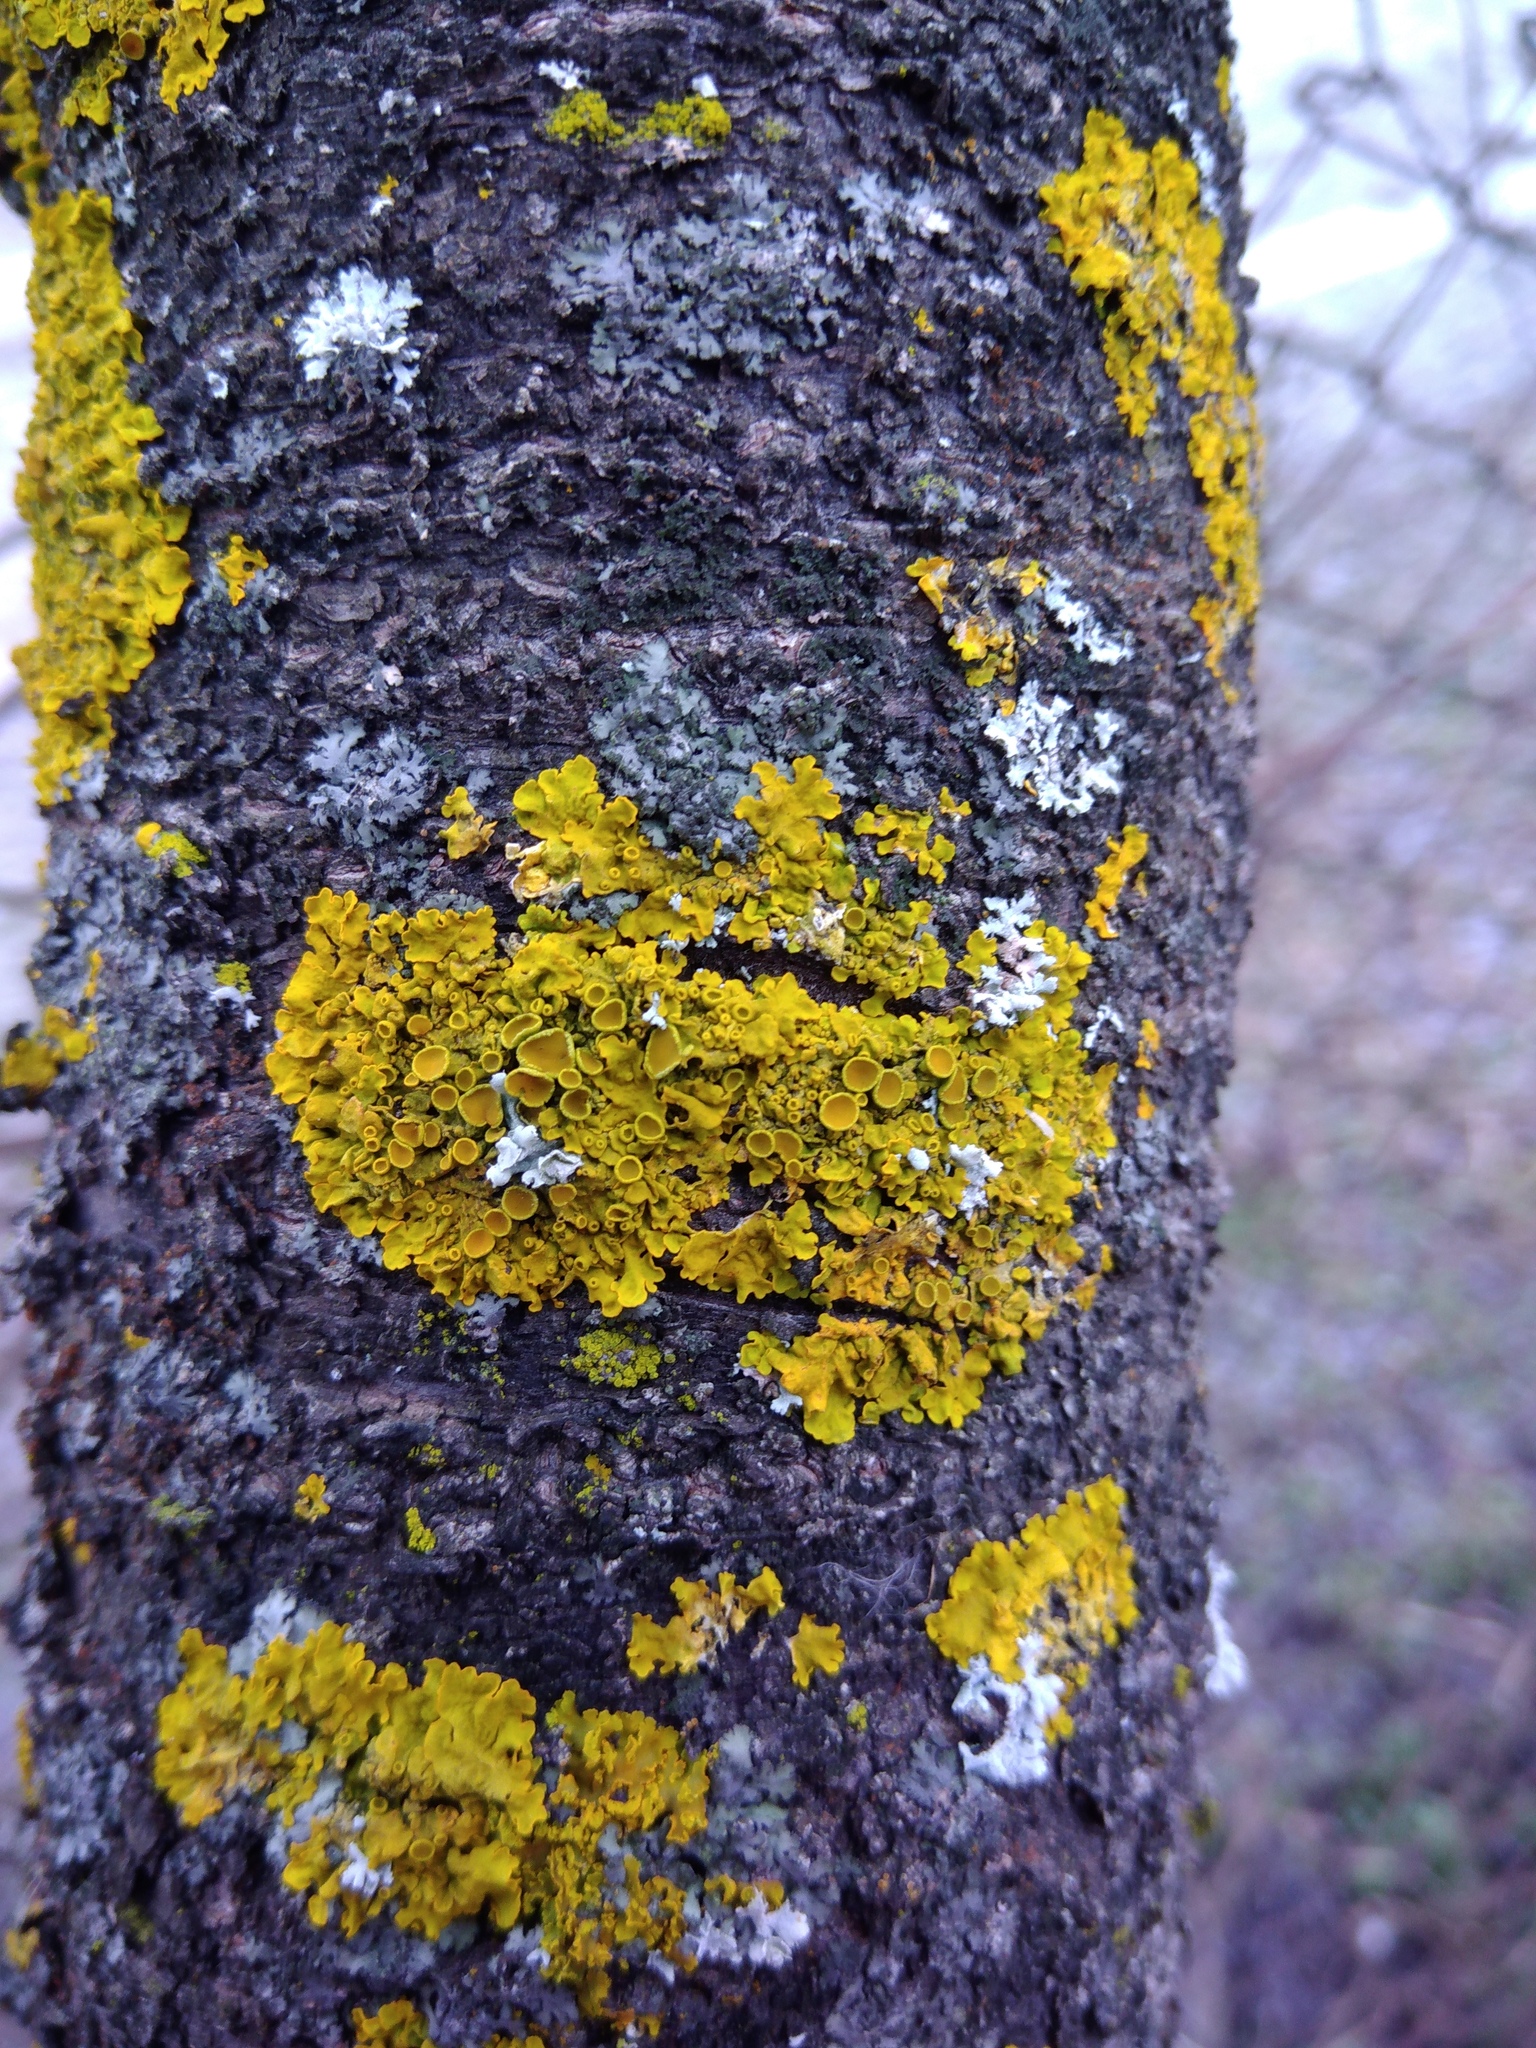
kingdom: Fungi
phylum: Ascomycota
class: Lecanoromycetes
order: Teloschistales
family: Teloschistaceae
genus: Xanthoria
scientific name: Xanthoria parietina
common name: Common orange lichen
